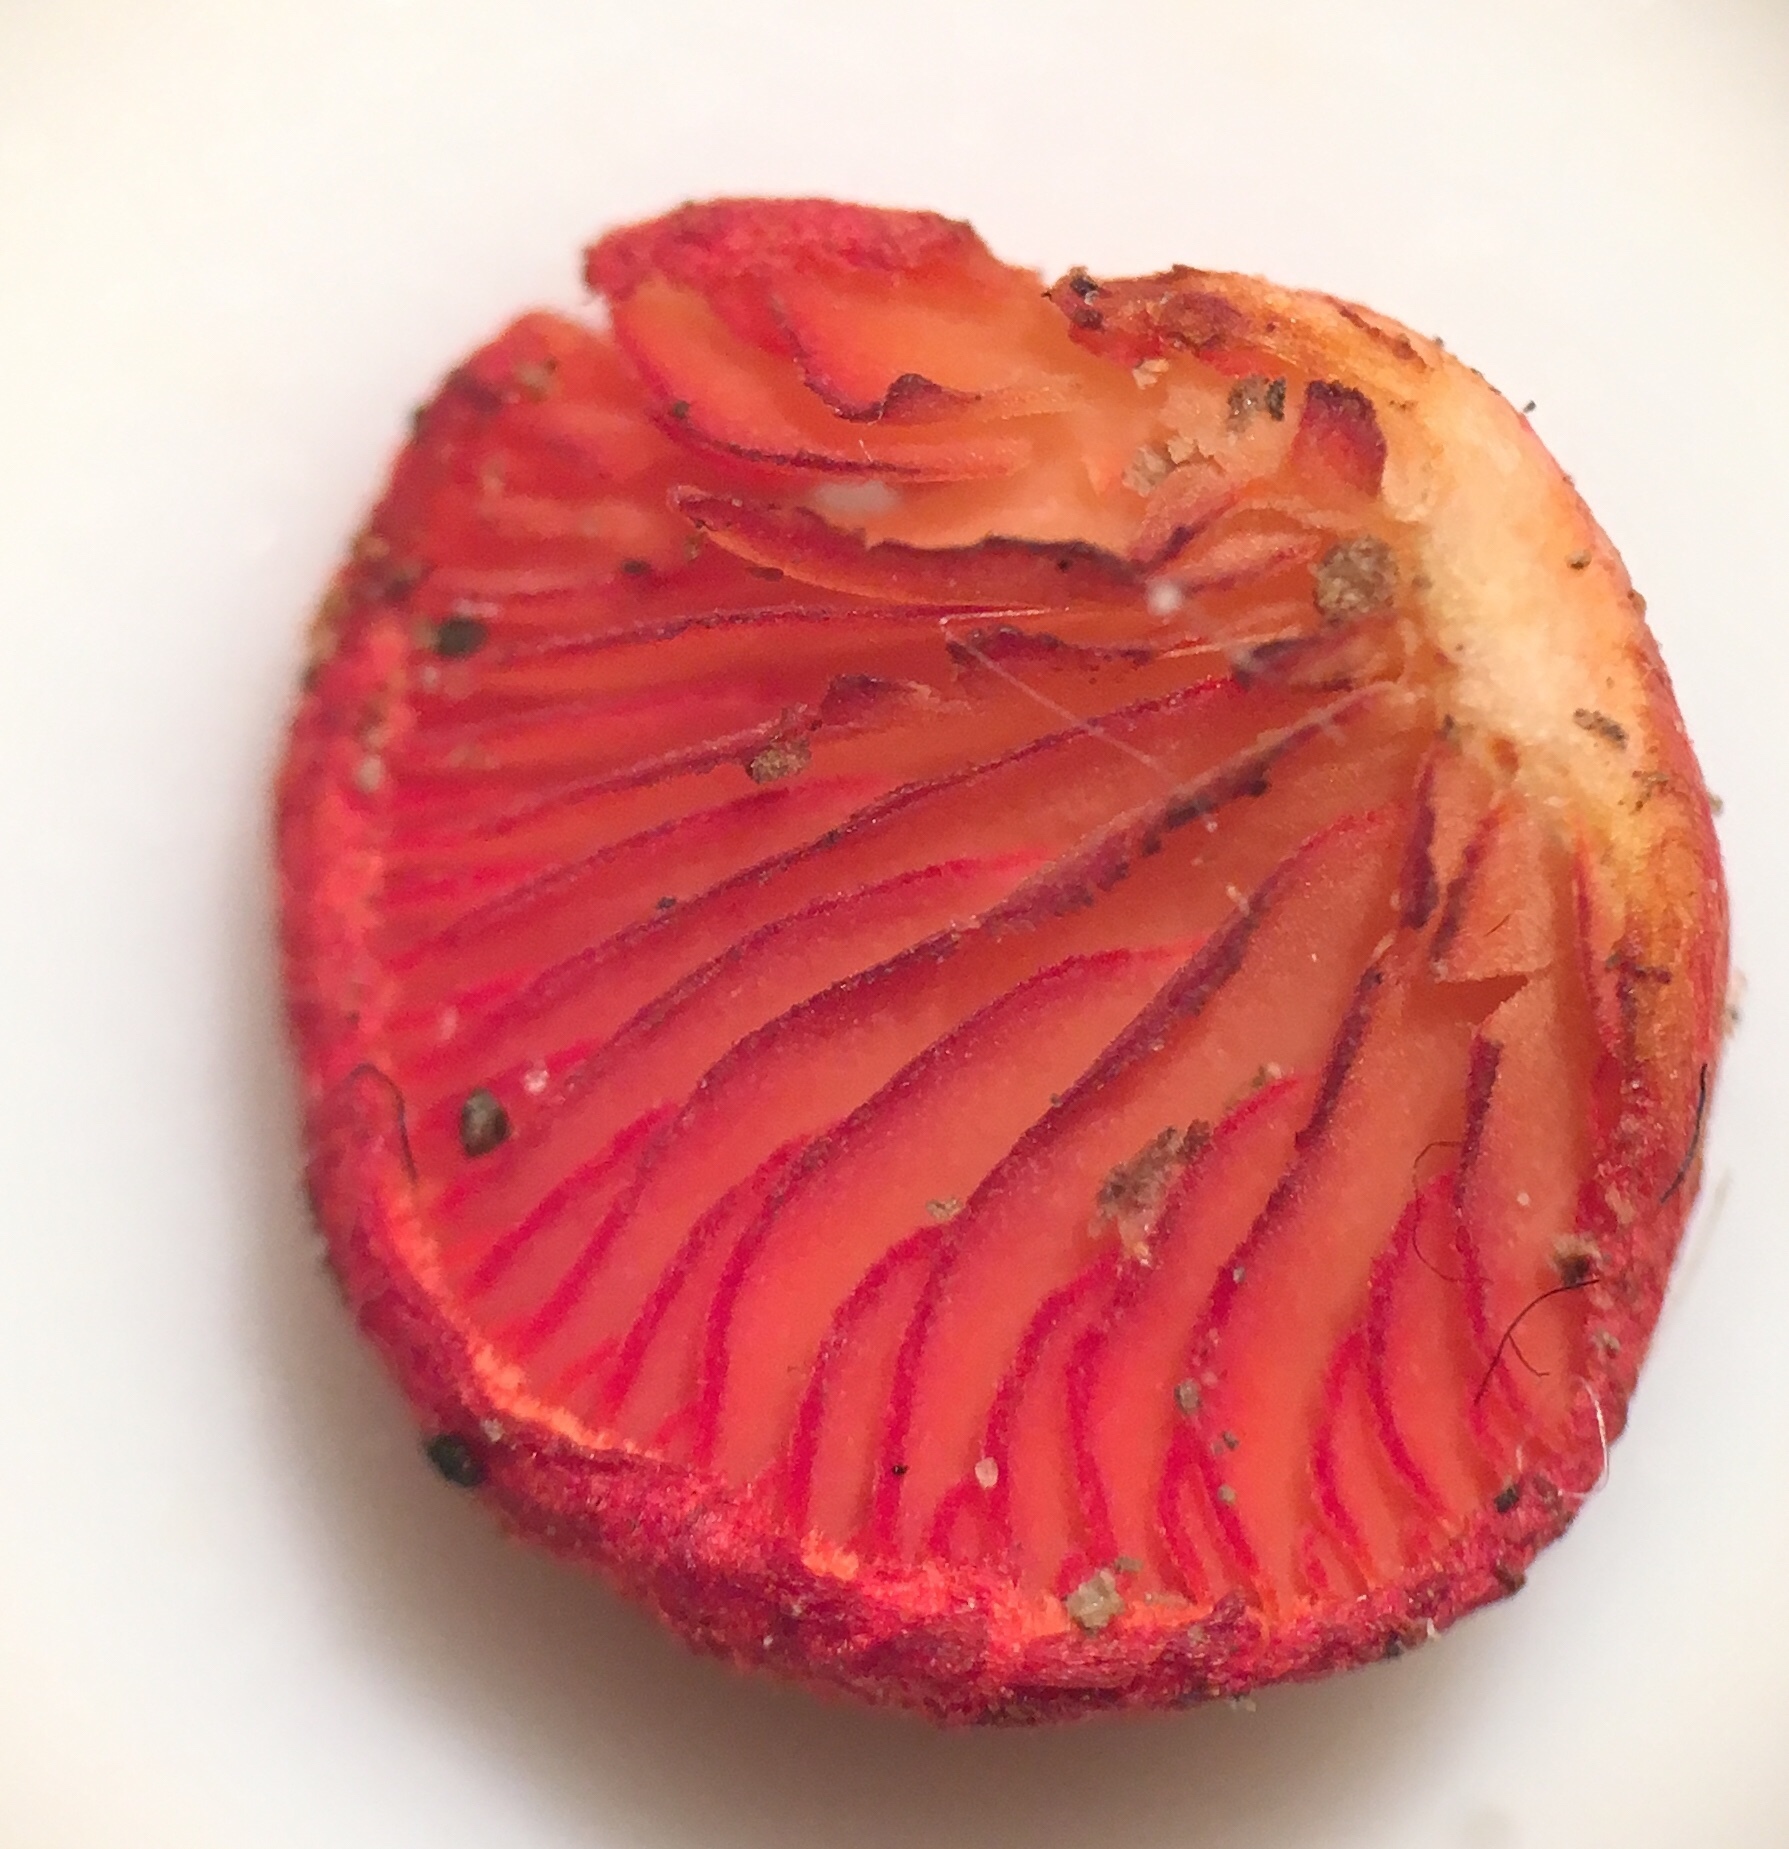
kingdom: Fungi
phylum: Basidiomycota
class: Agaricomycetes
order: Agaricales
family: Crepidotaceae
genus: Crepidotus
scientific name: Crepidotus cinnabarinus
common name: Cinnabar oysterling
